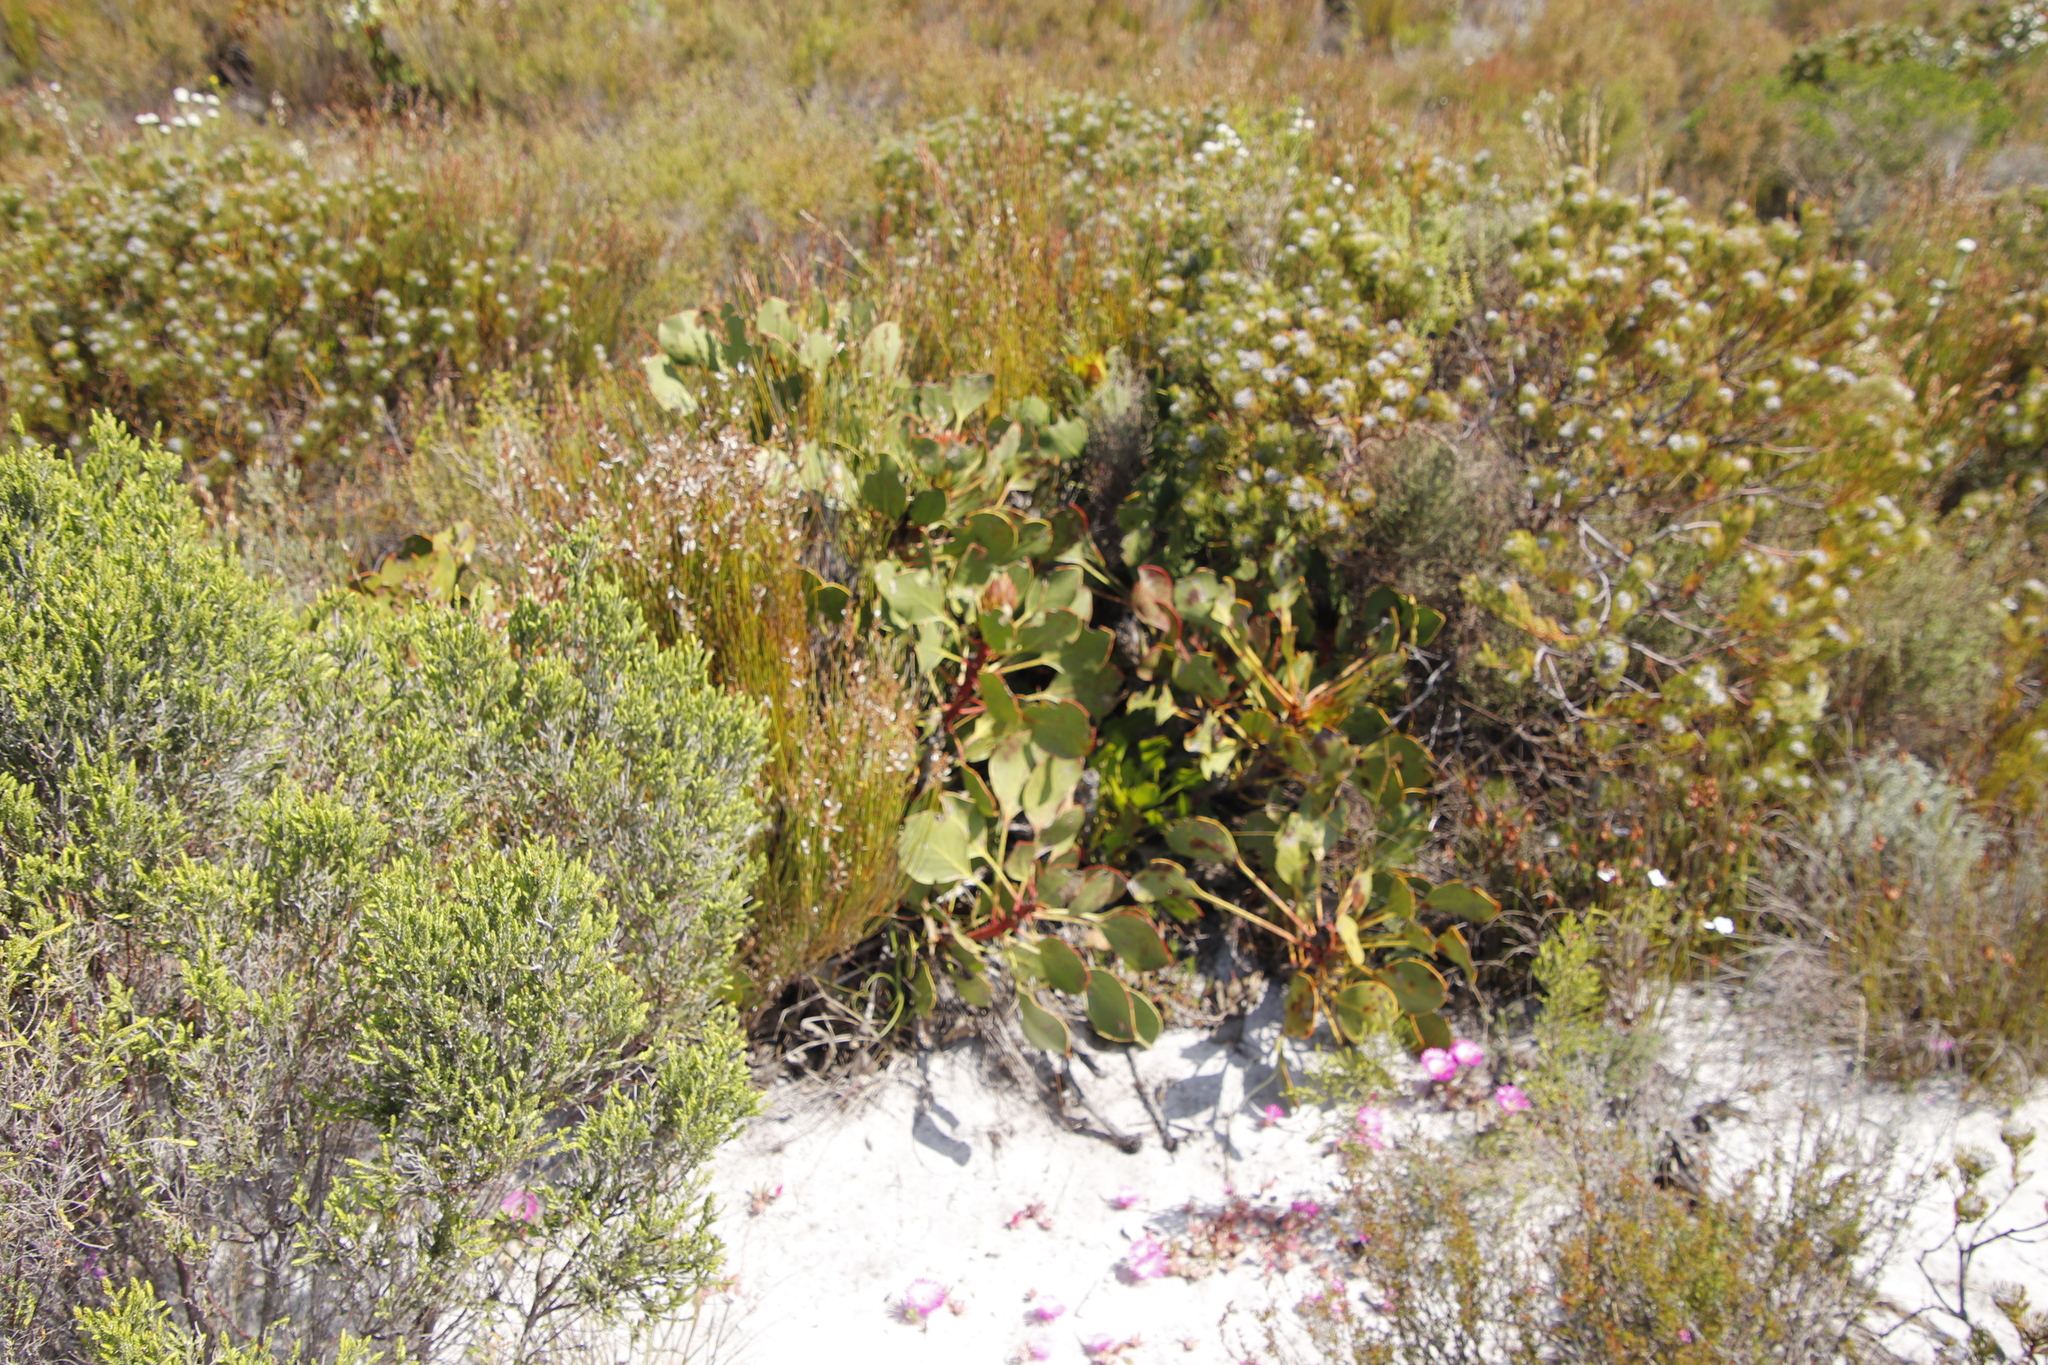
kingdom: Plantae
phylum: Tracheophyta
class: Magnoliopsida
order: Proteales
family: Proteaceae
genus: Protea
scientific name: Protea cynaroides
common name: King protea
